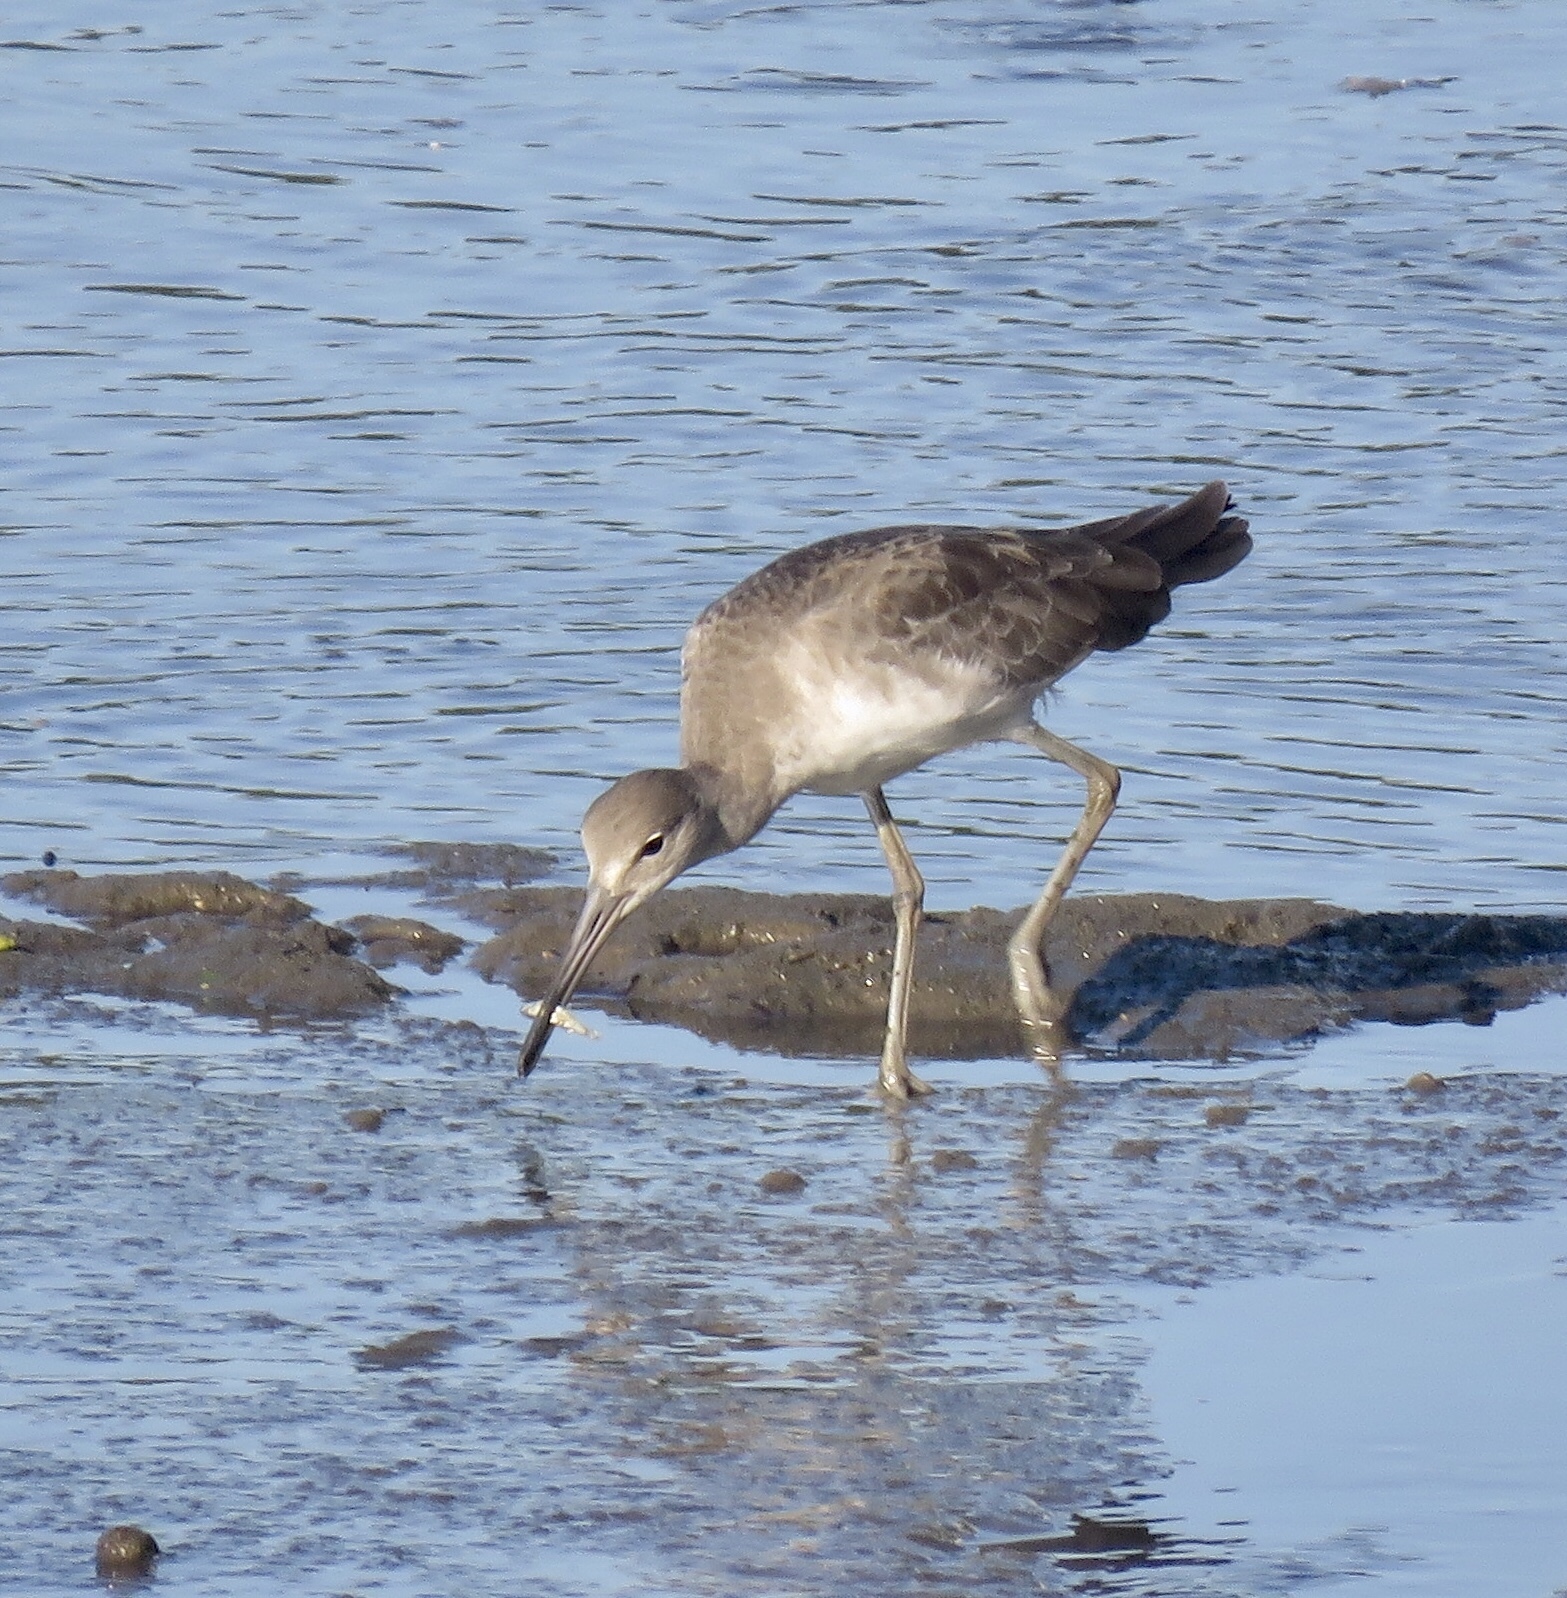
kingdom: Animalia
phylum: Chordata
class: Aves
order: Charadriiformes
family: Scolopacidae
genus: Tringa
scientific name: Tringa semipalmata
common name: Willet
